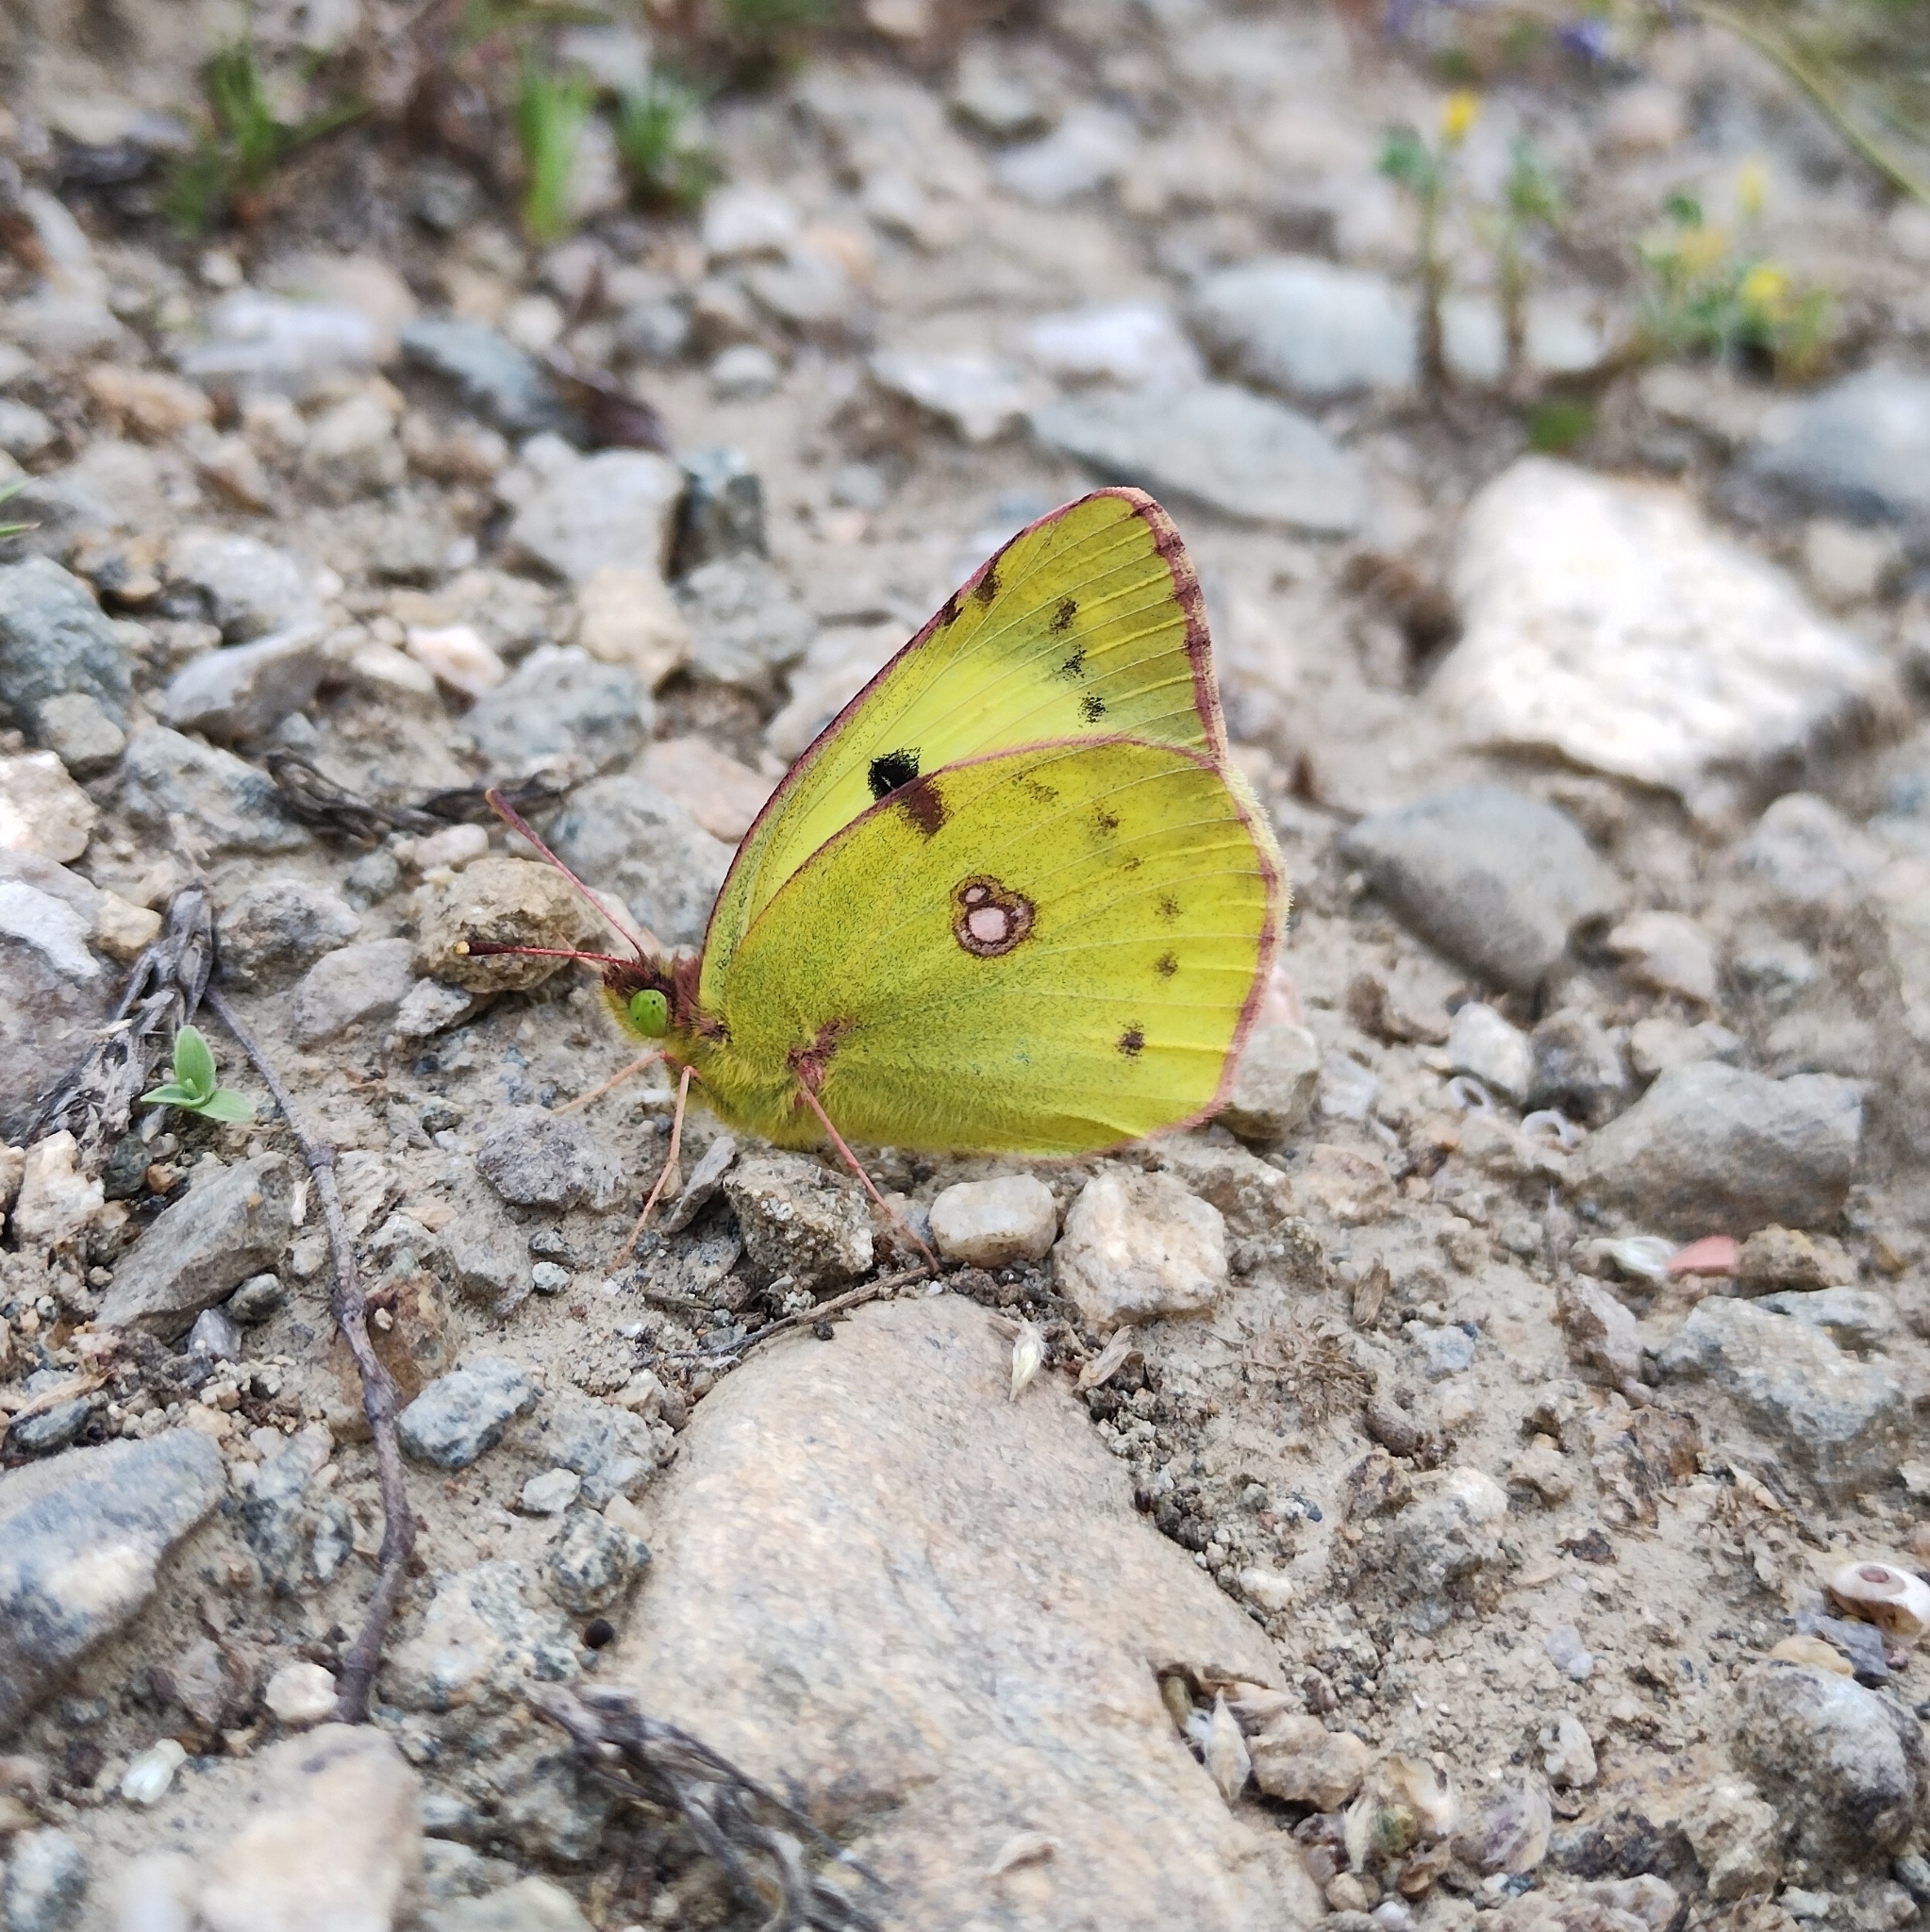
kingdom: Animalia
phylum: Arthropoda
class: Insecta
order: Lepidoptera
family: Pieridae
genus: Colias
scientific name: Colias
